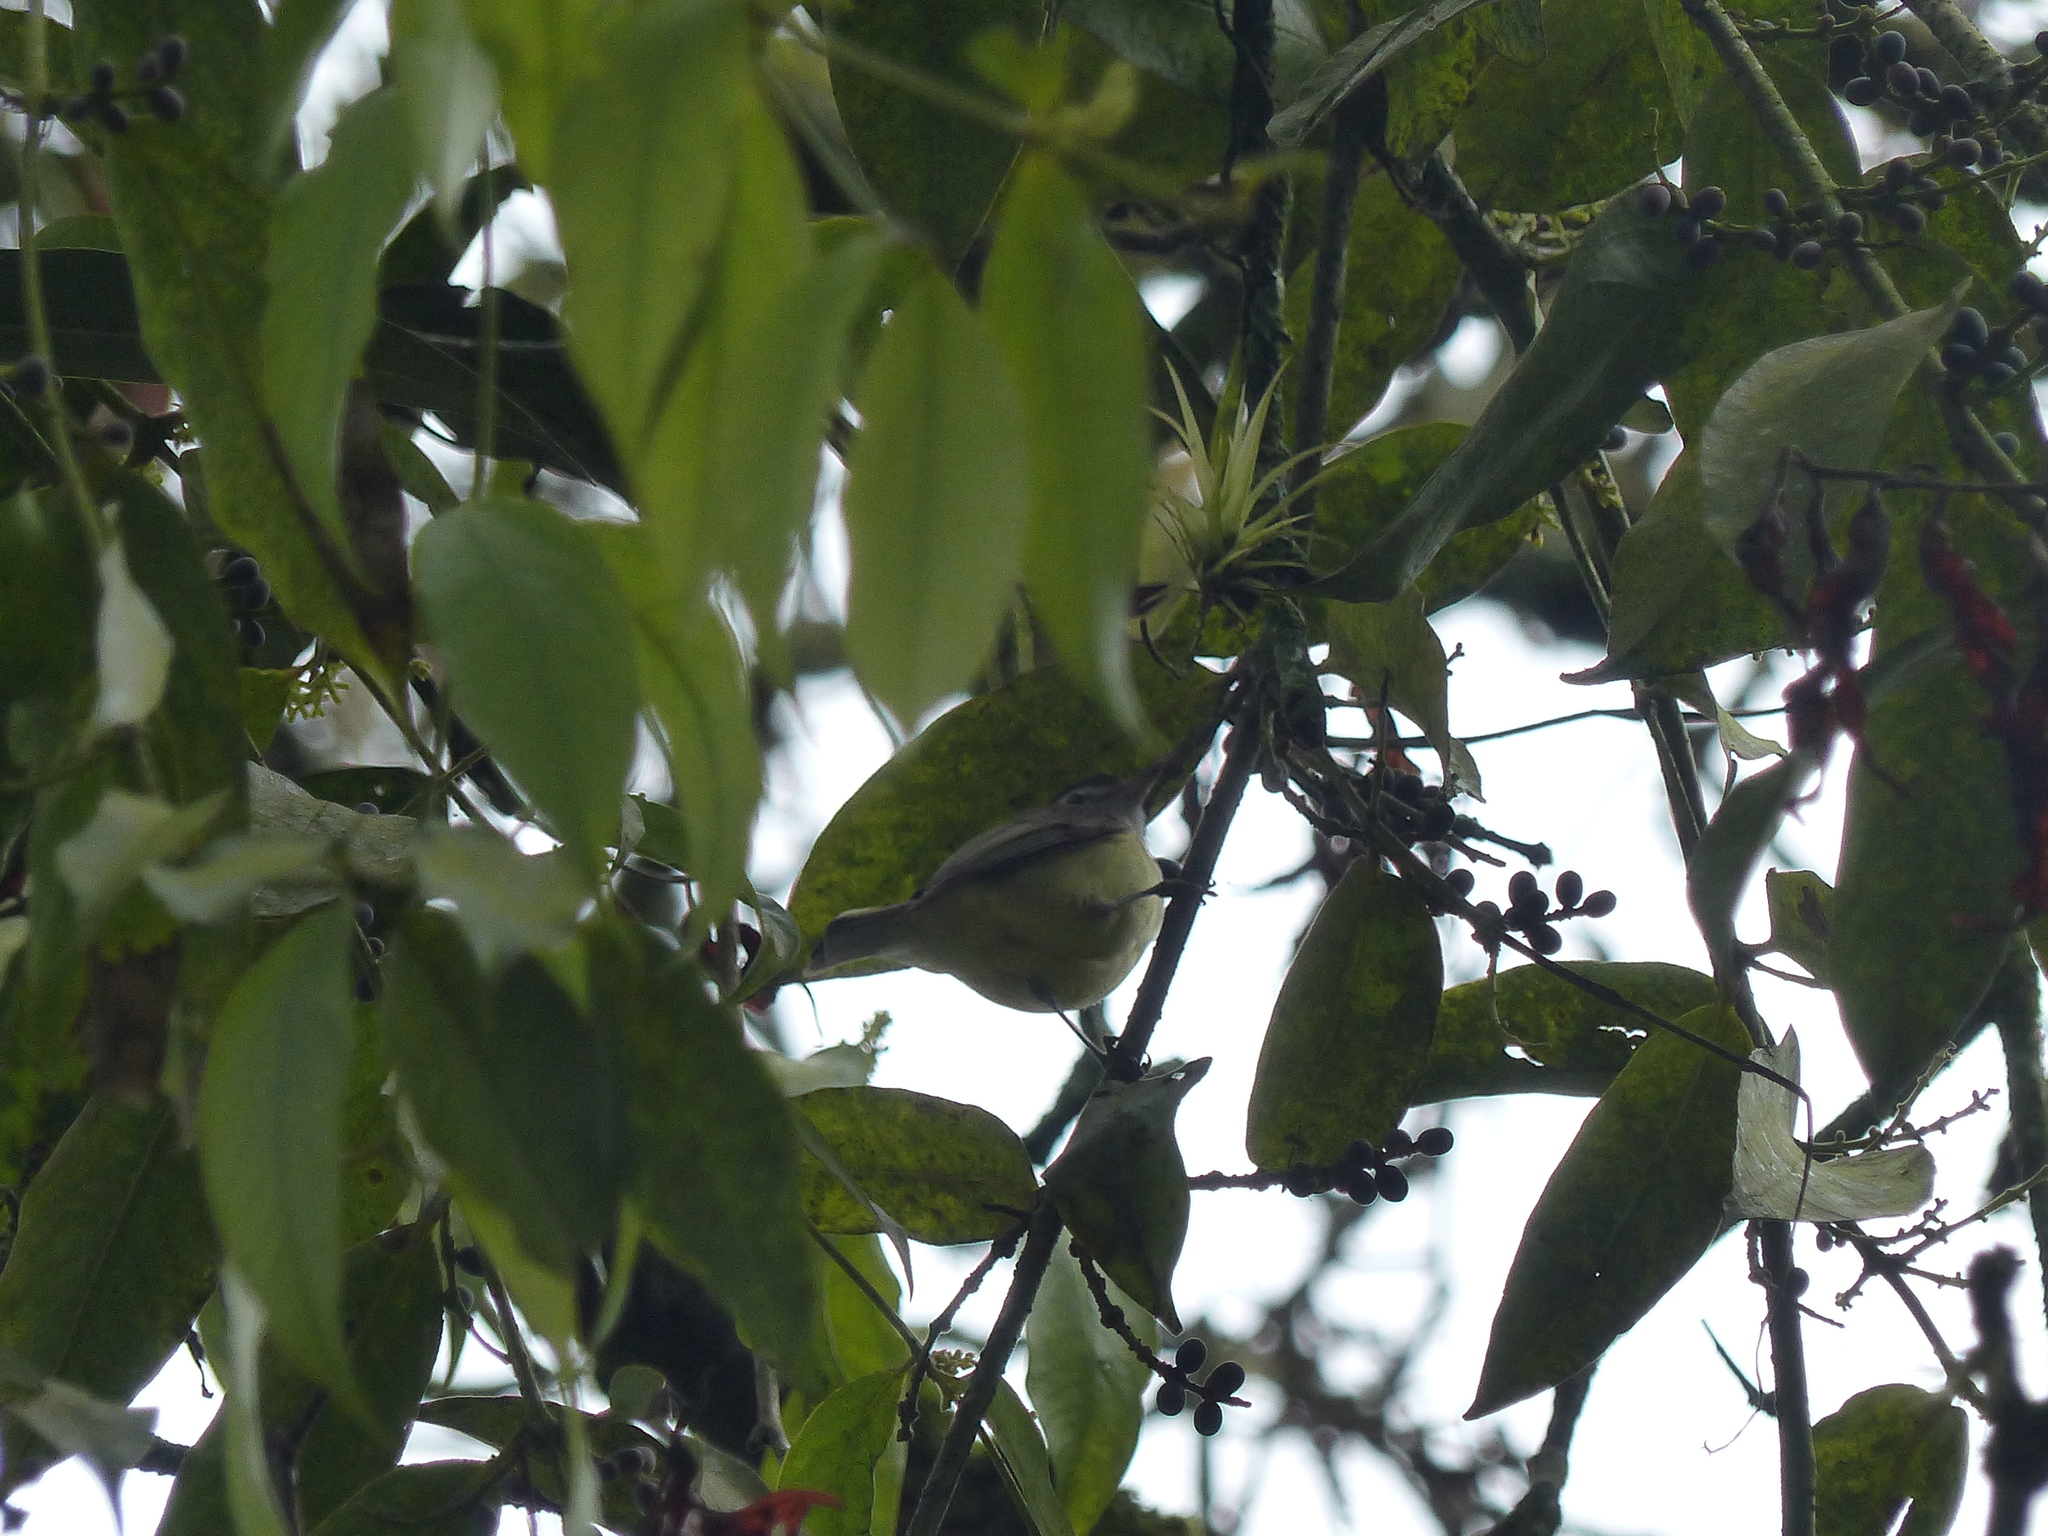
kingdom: Animalia
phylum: Chordata
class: Aves
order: Passeriformes
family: Vireonidae
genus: Vireo
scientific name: Vireo leucophrys
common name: Brown-capped vireo
